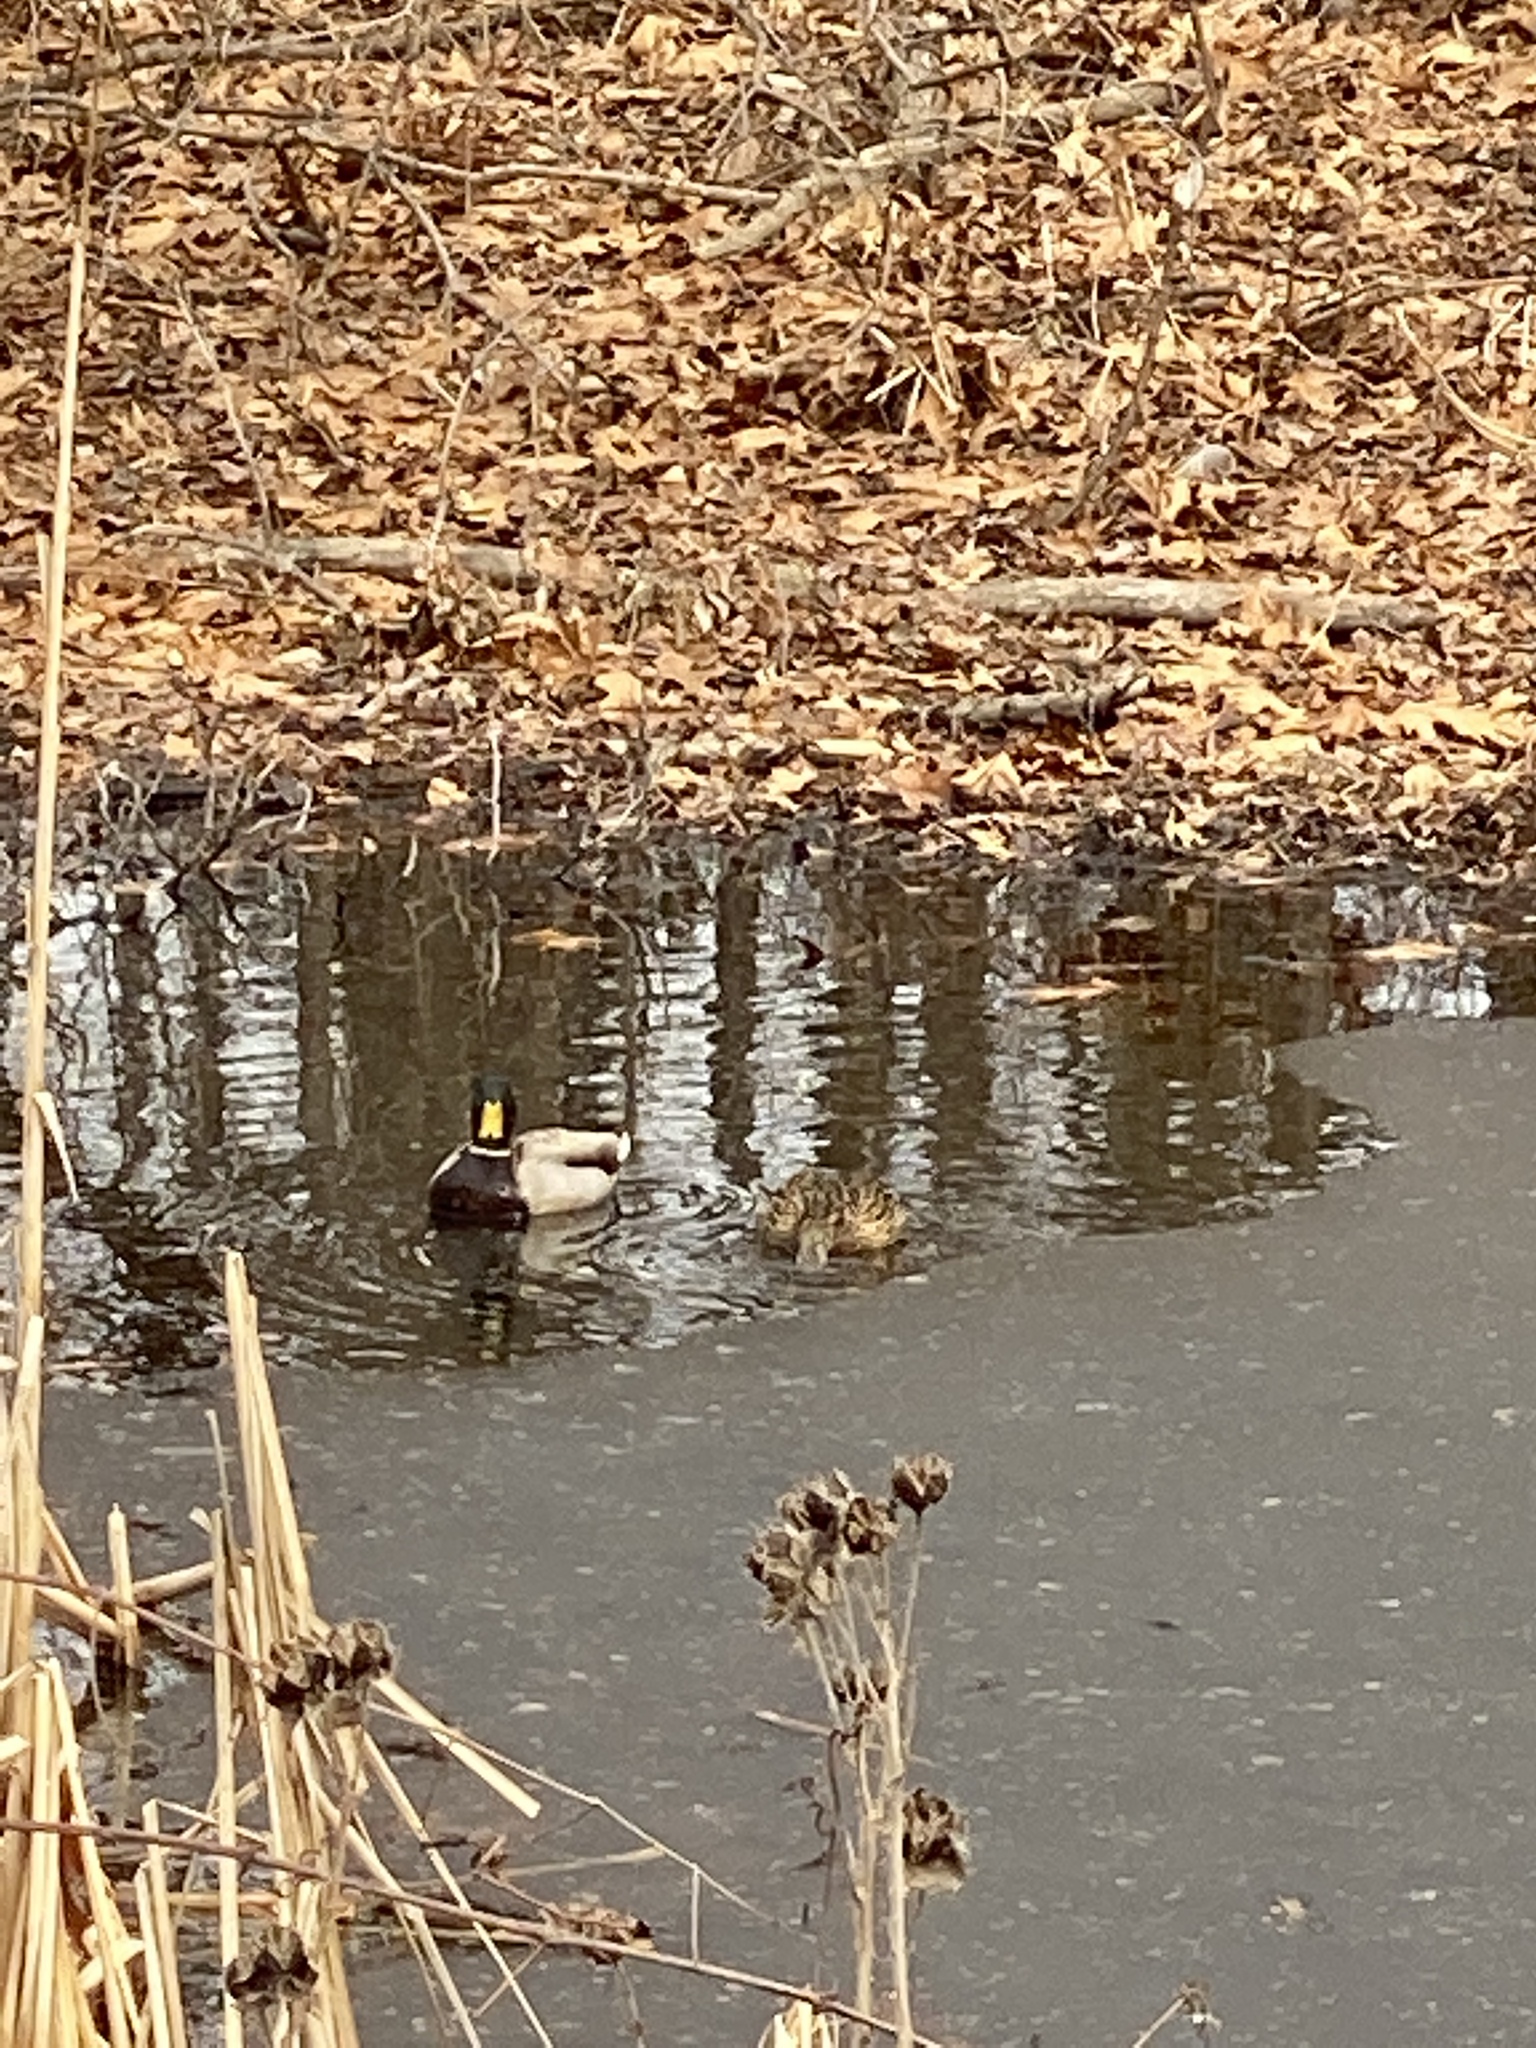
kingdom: Animalia
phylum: Chordata
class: Aves
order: Anseriformes
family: Anatidae
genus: Anas
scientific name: Anas platyrhynchos
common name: Mallard
